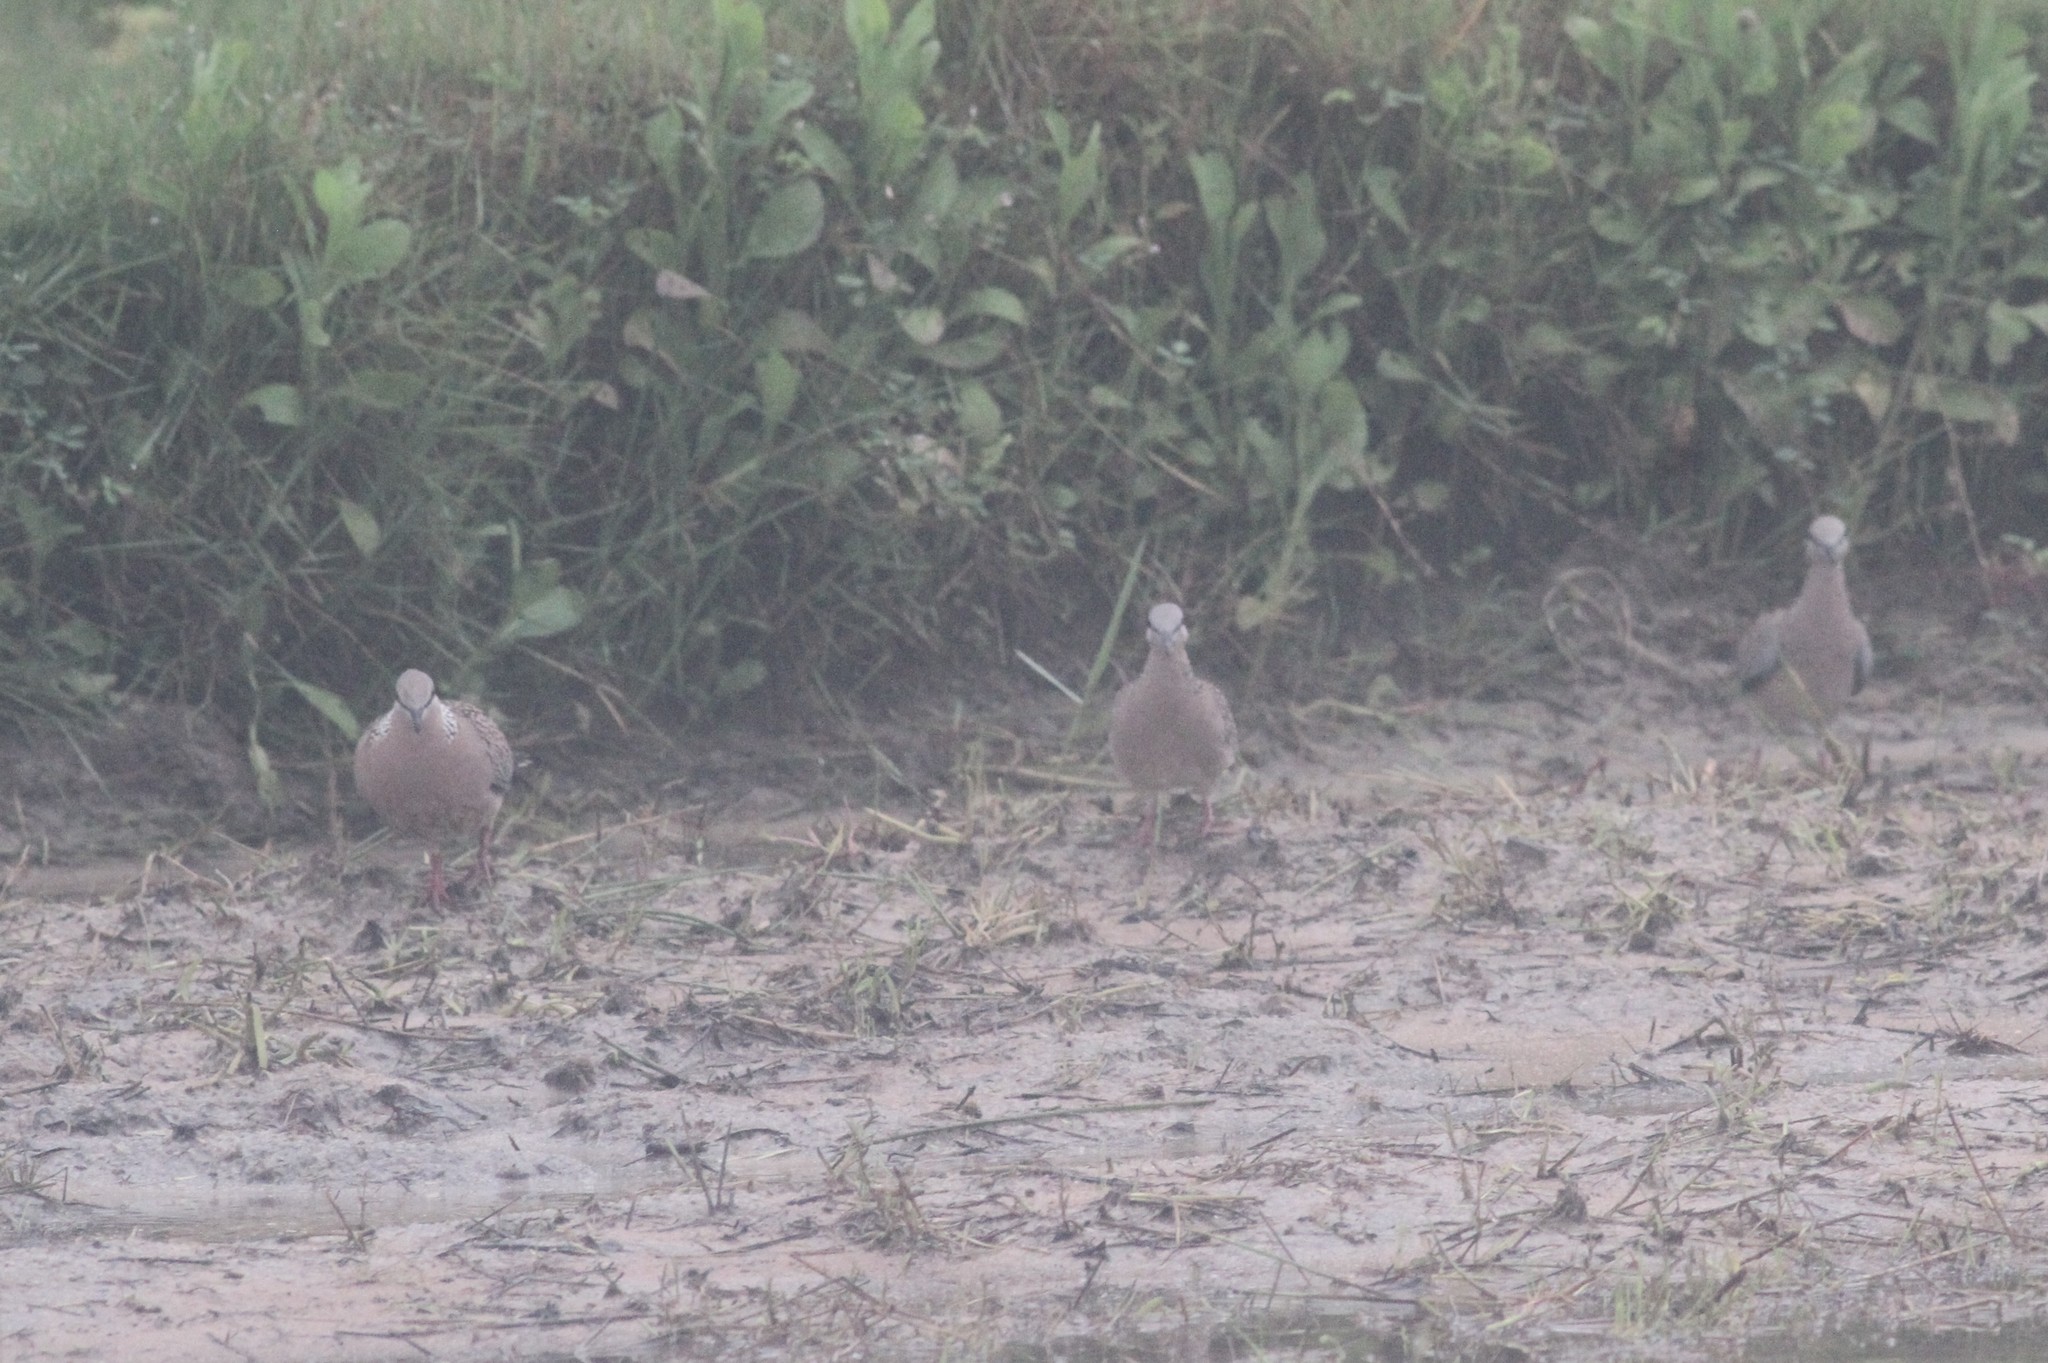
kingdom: Animalia
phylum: Chordata
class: Aves
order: Columbiformes
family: Columbidae
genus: Spilopelia
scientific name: Spilopelia chinensis
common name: Spotted dove
